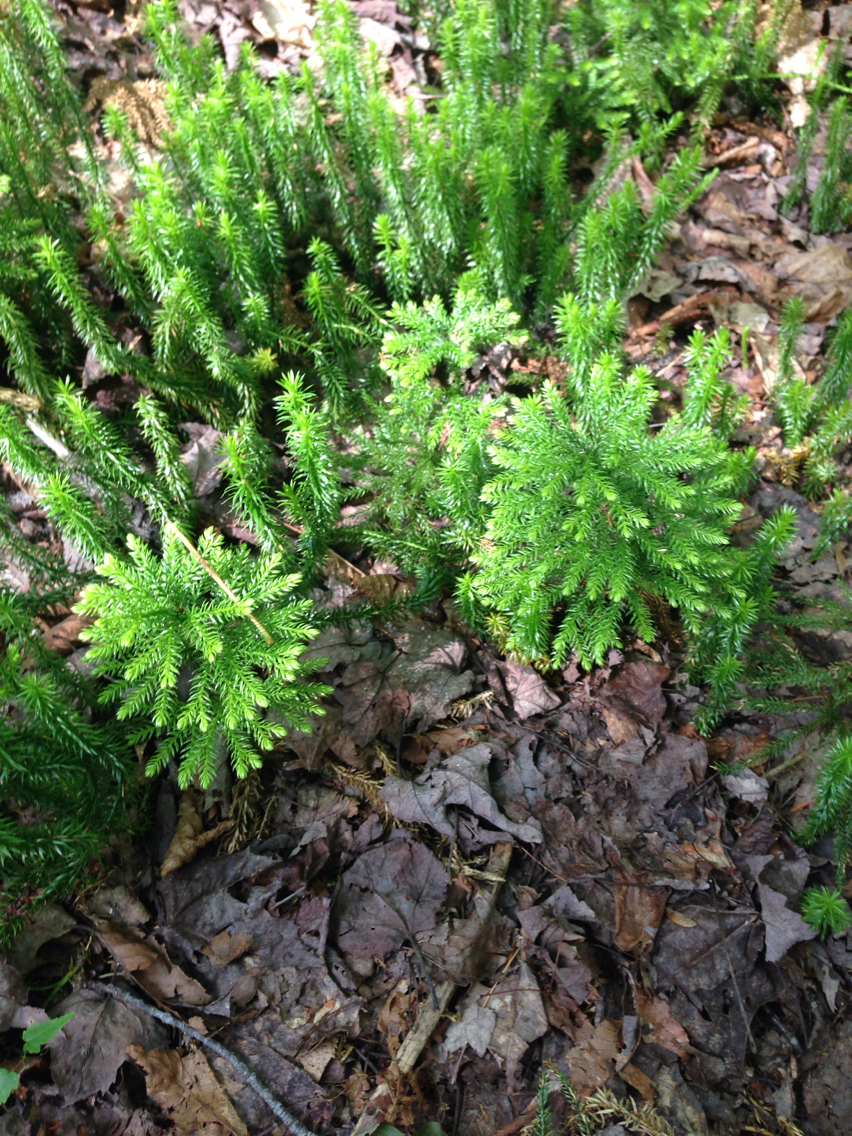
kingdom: Plantae
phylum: Tracheophyta
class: Lycopodiopsida
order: Lycopodiales
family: Lycopodiaceae
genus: Dendrolycopodium
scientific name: Dendrolycopodium obscurum
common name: Common ground-pine
